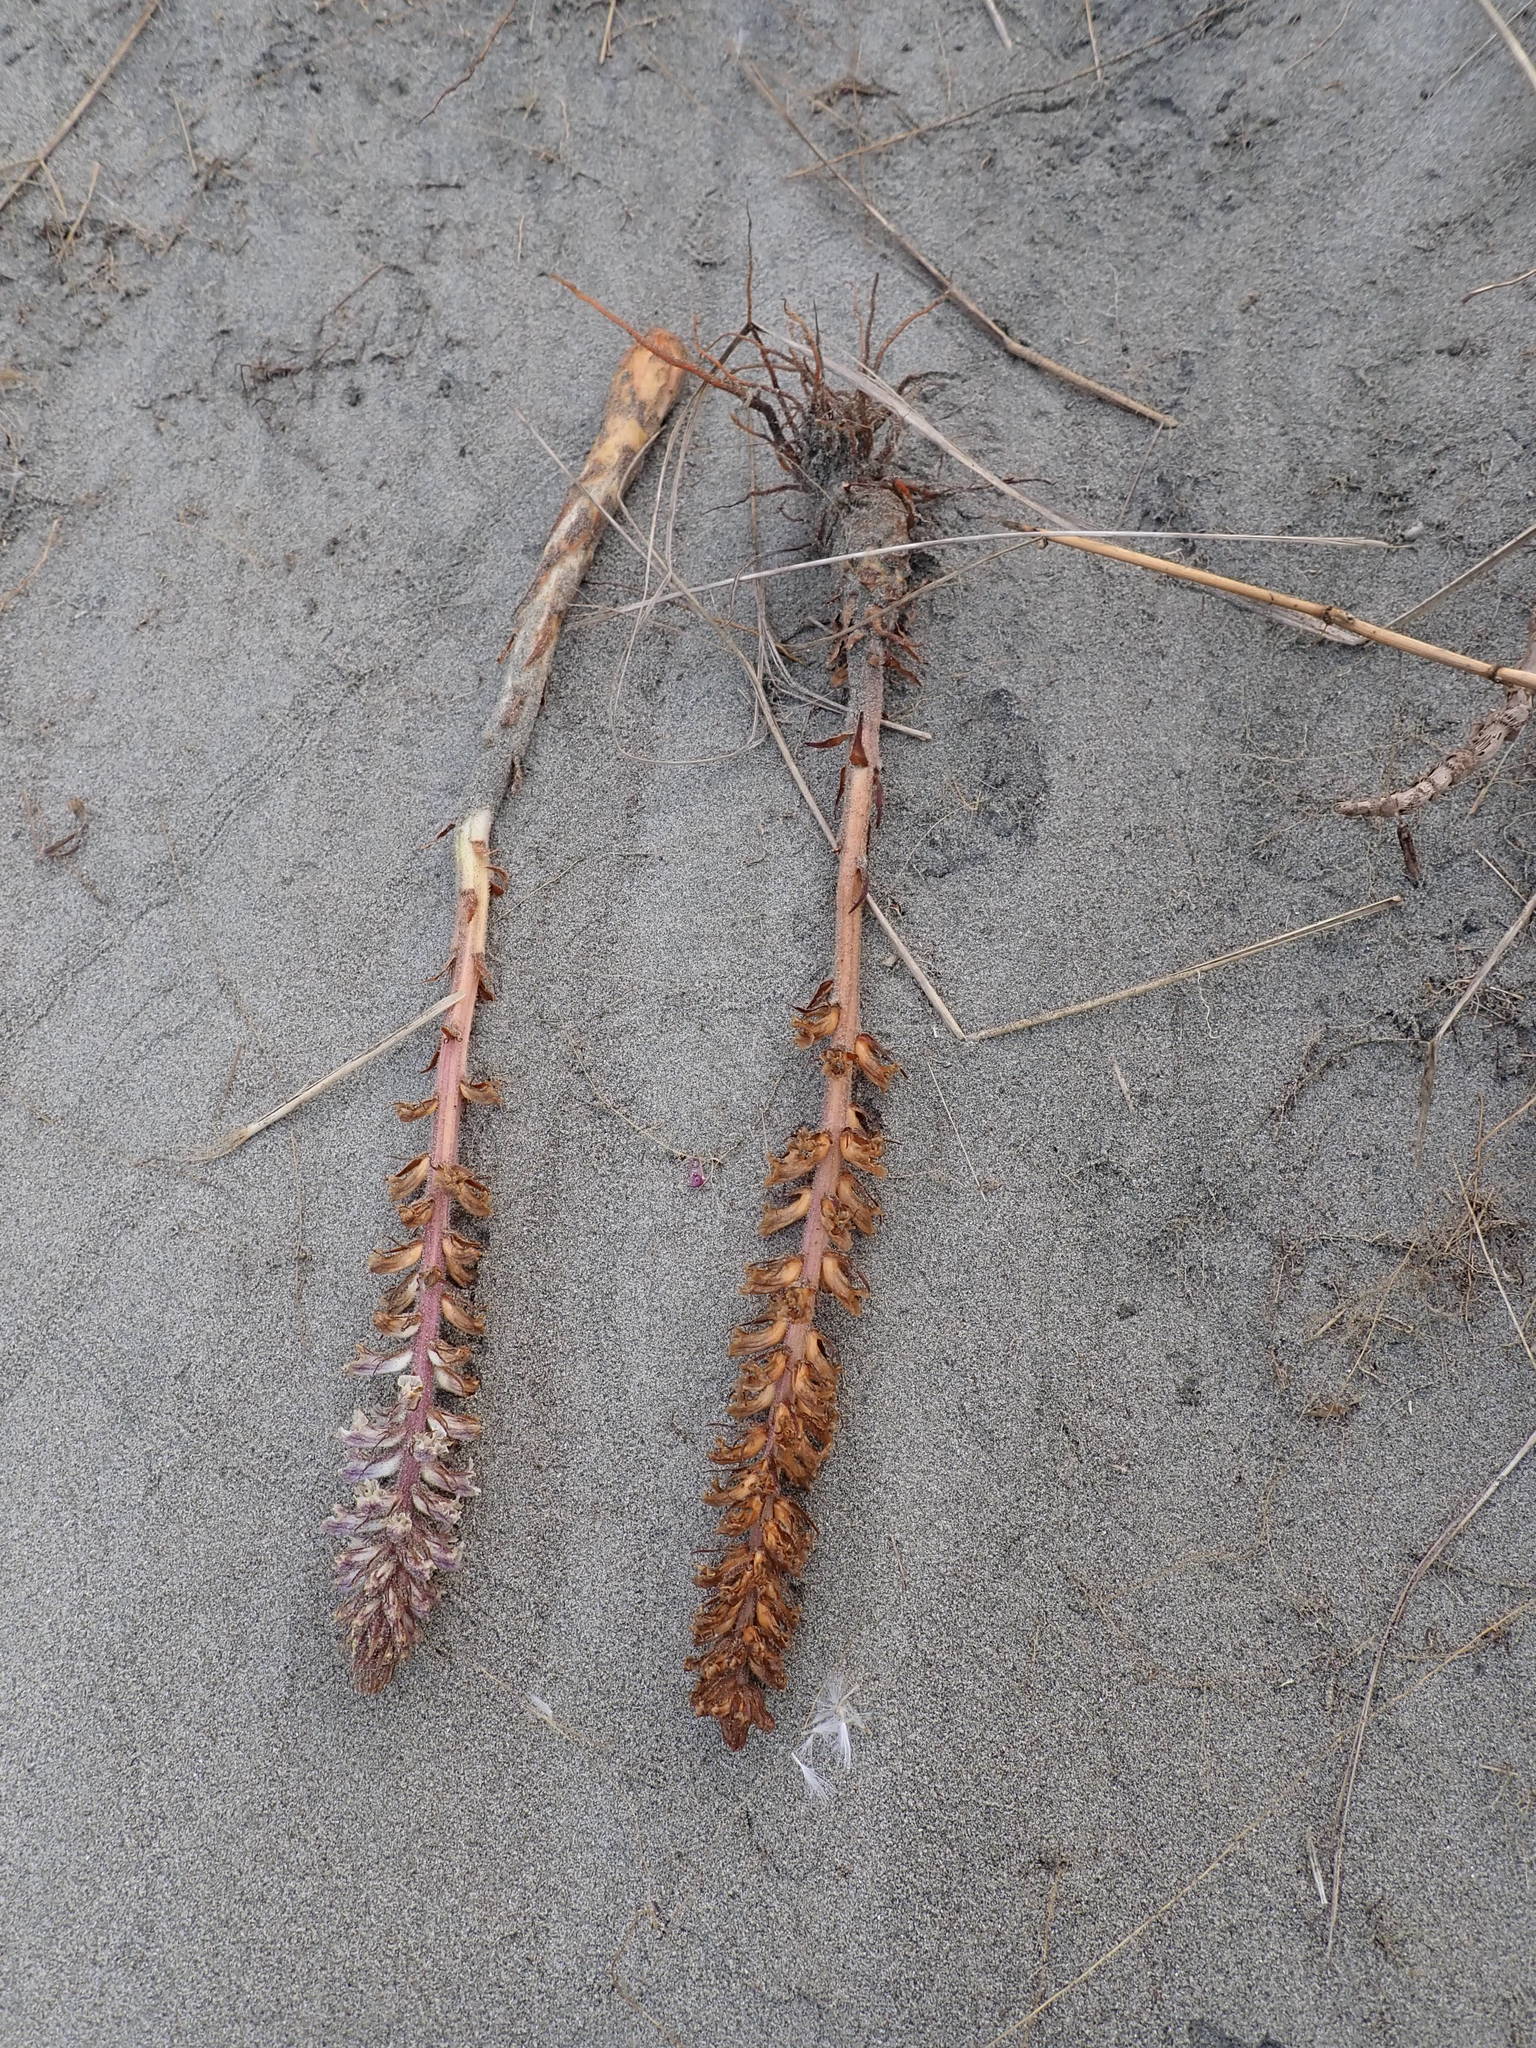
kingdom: Plantae
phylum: Tracheophyta
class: Magnoliopsida
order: Lamiales
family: Orobanchaceae
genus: Orobanche
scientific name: Orobanche minor
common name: Common broomrape
